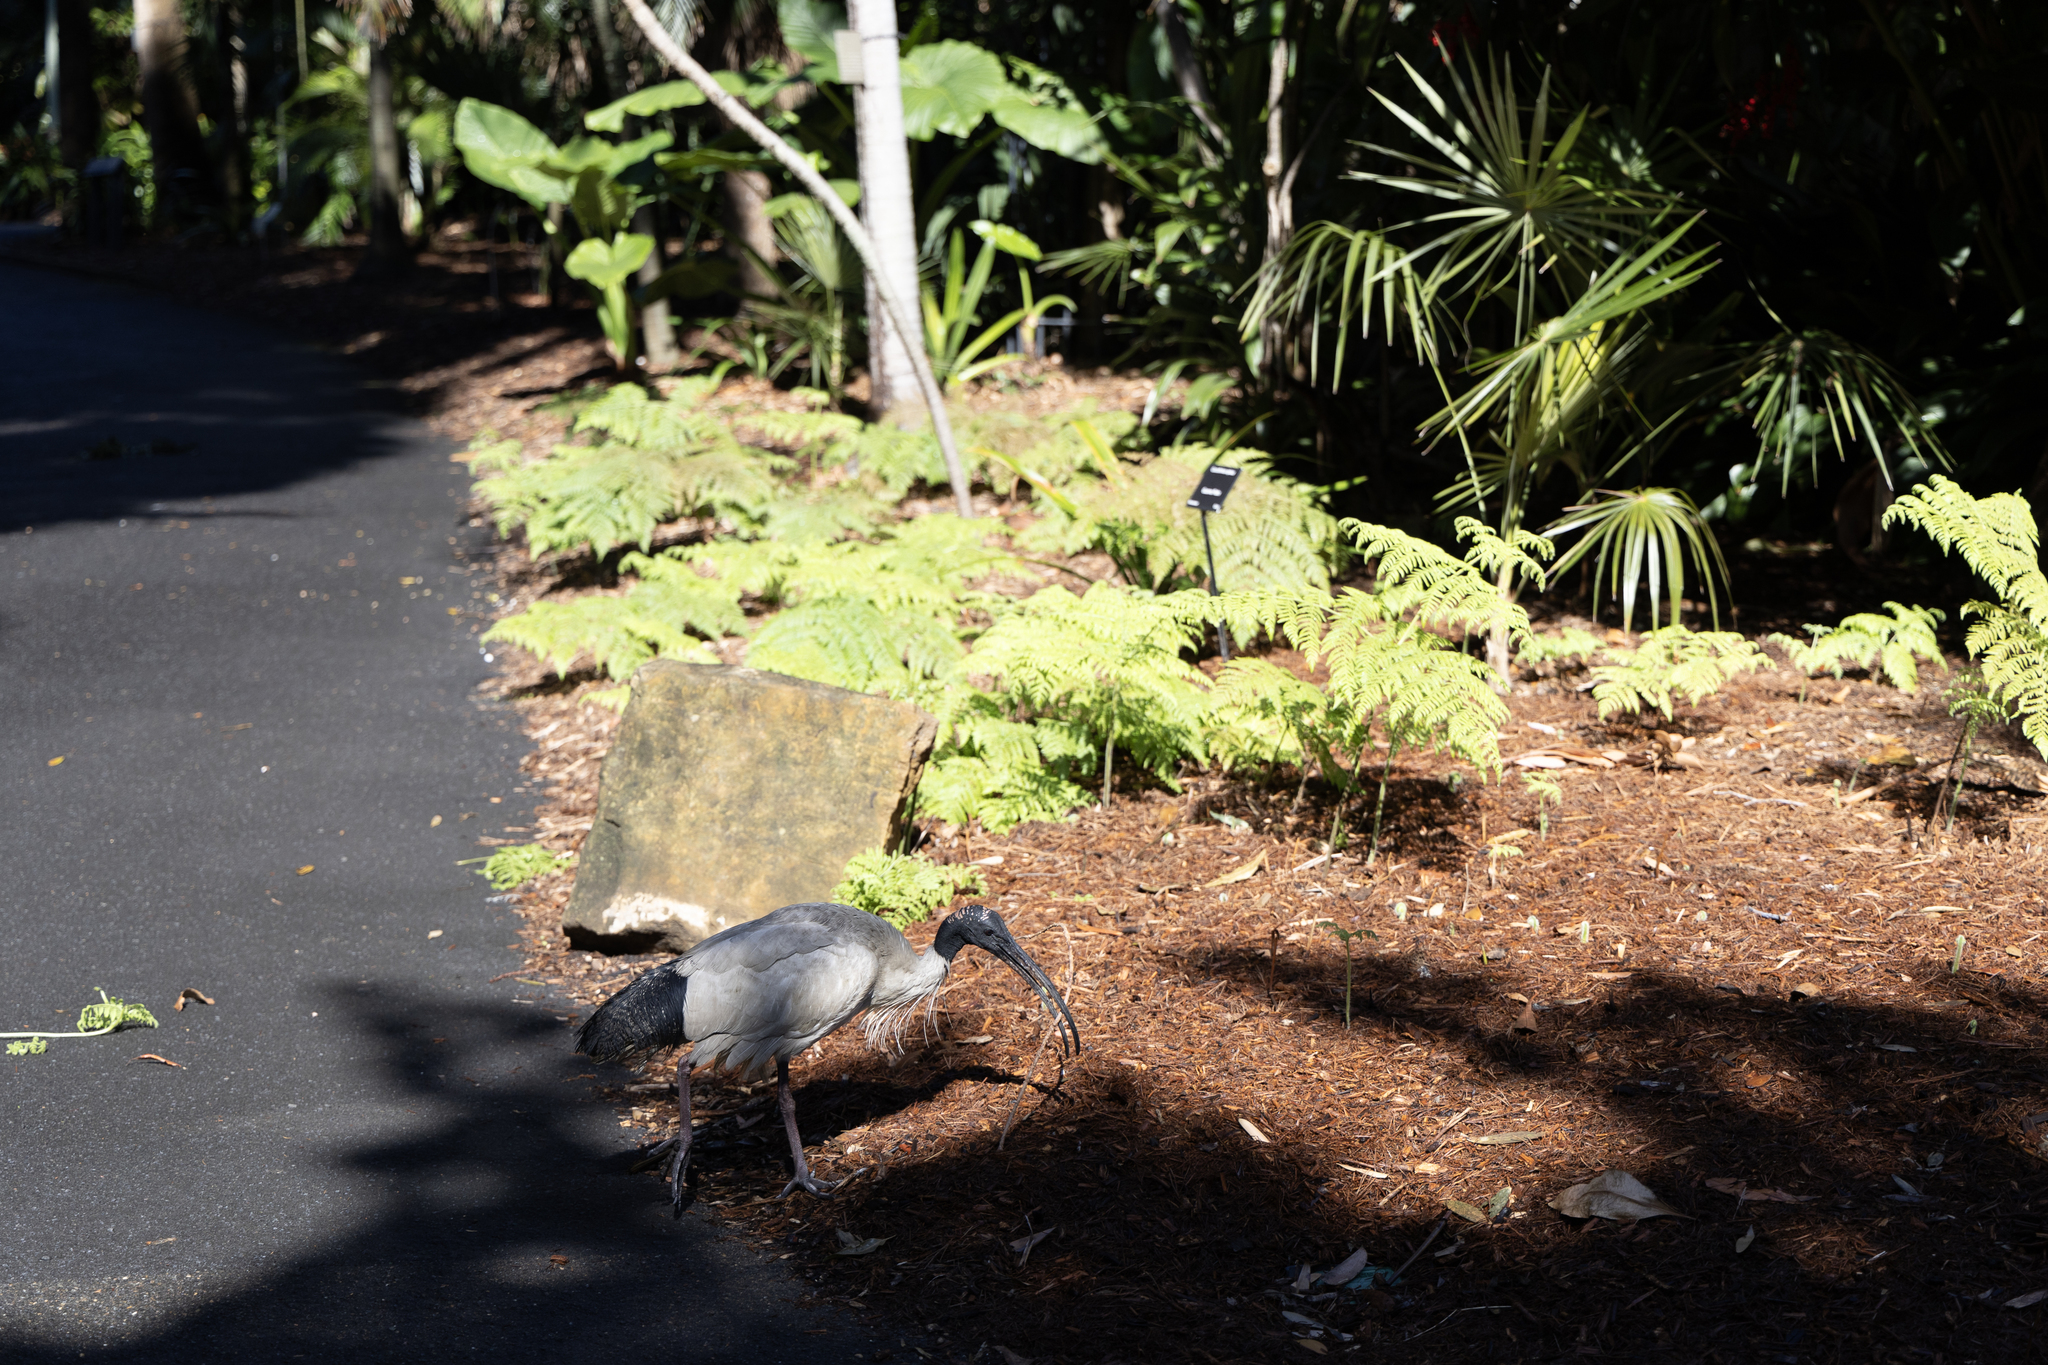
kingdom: Animalia
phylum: Chordata
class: Aves
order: Pelecaniformes
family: Threskiornithidae
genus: Threskiornis
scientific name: Threskiornis molucca
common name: Australian white ibis
